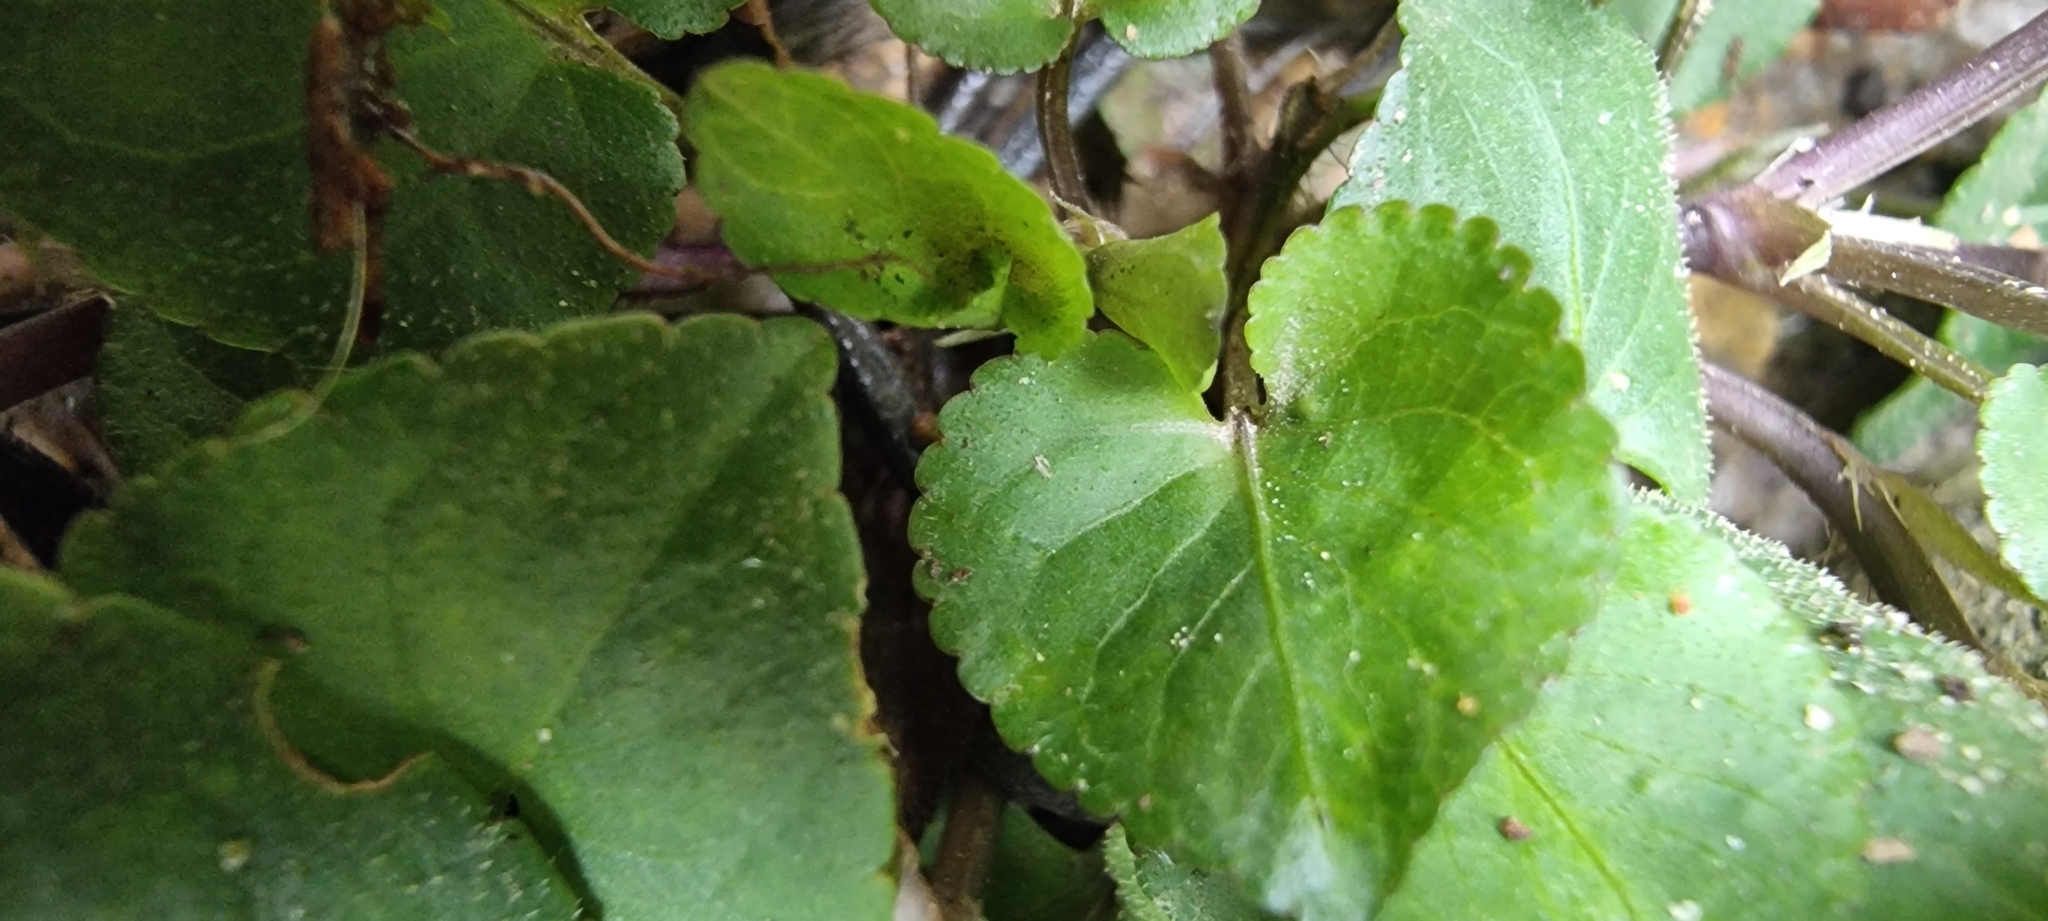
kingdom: Plantae
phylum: Tracheophyta
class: Magnoliopsida
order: Malpighiales
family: Violaceae
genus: Viola
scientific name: Viola riviniana
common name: Common dog-violet
